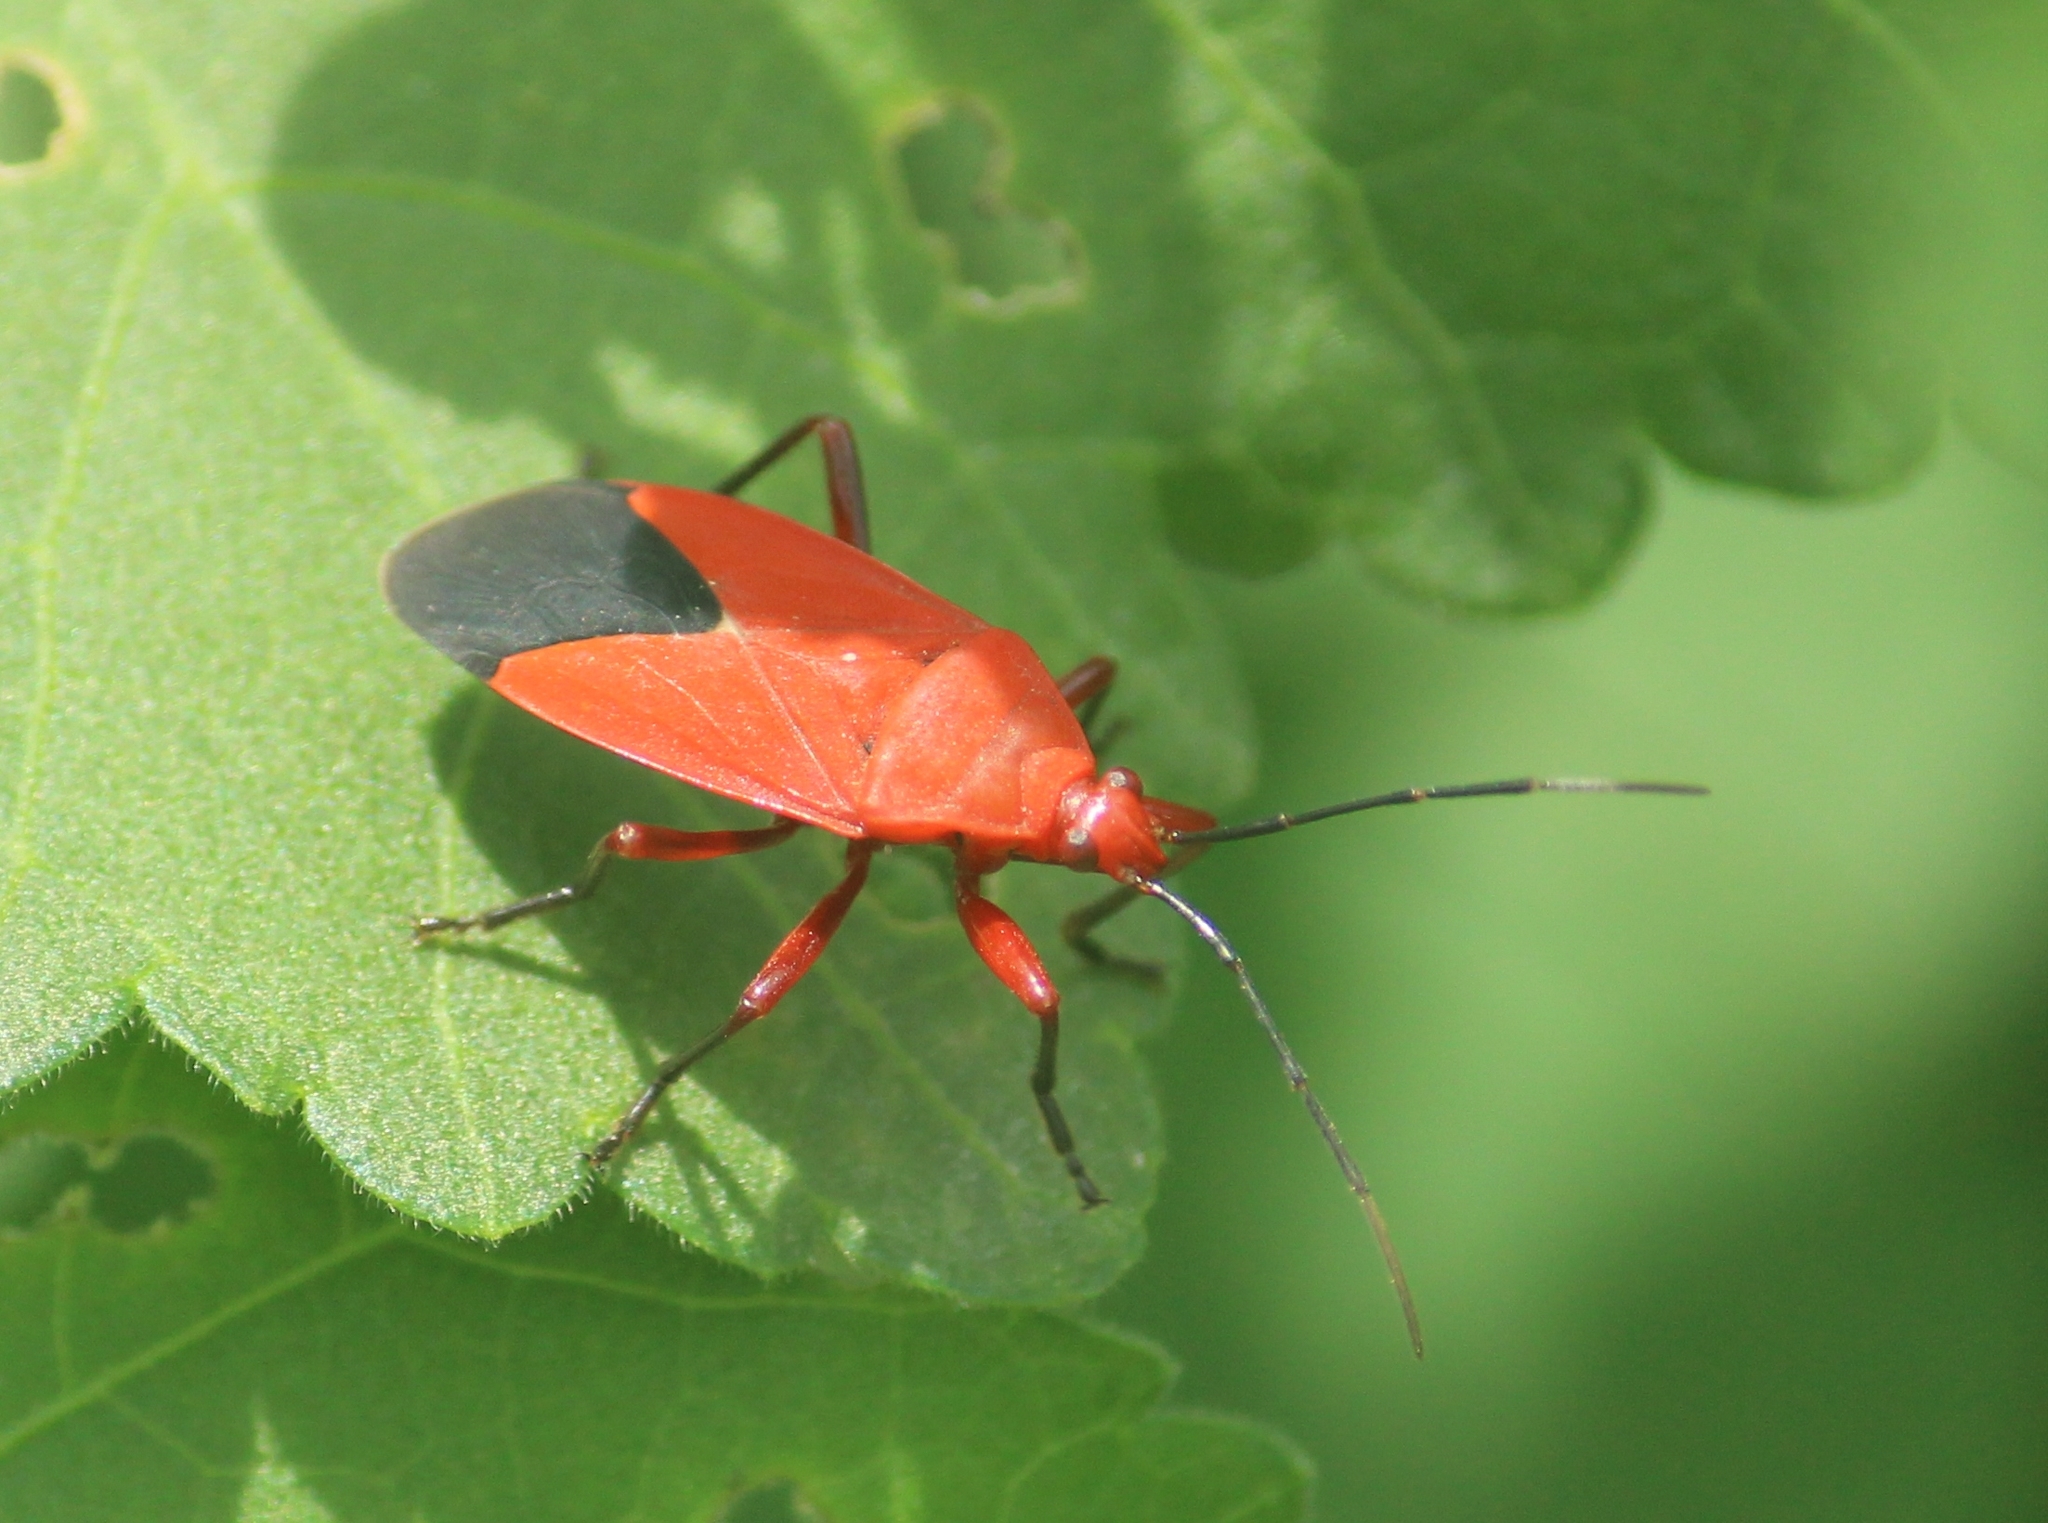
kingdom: Animalia
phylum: Arthropoda
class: Insecta
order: Hemiptera
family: Pyrrhocoridae
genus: Antilochus
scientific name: Antilochus coquebertii
